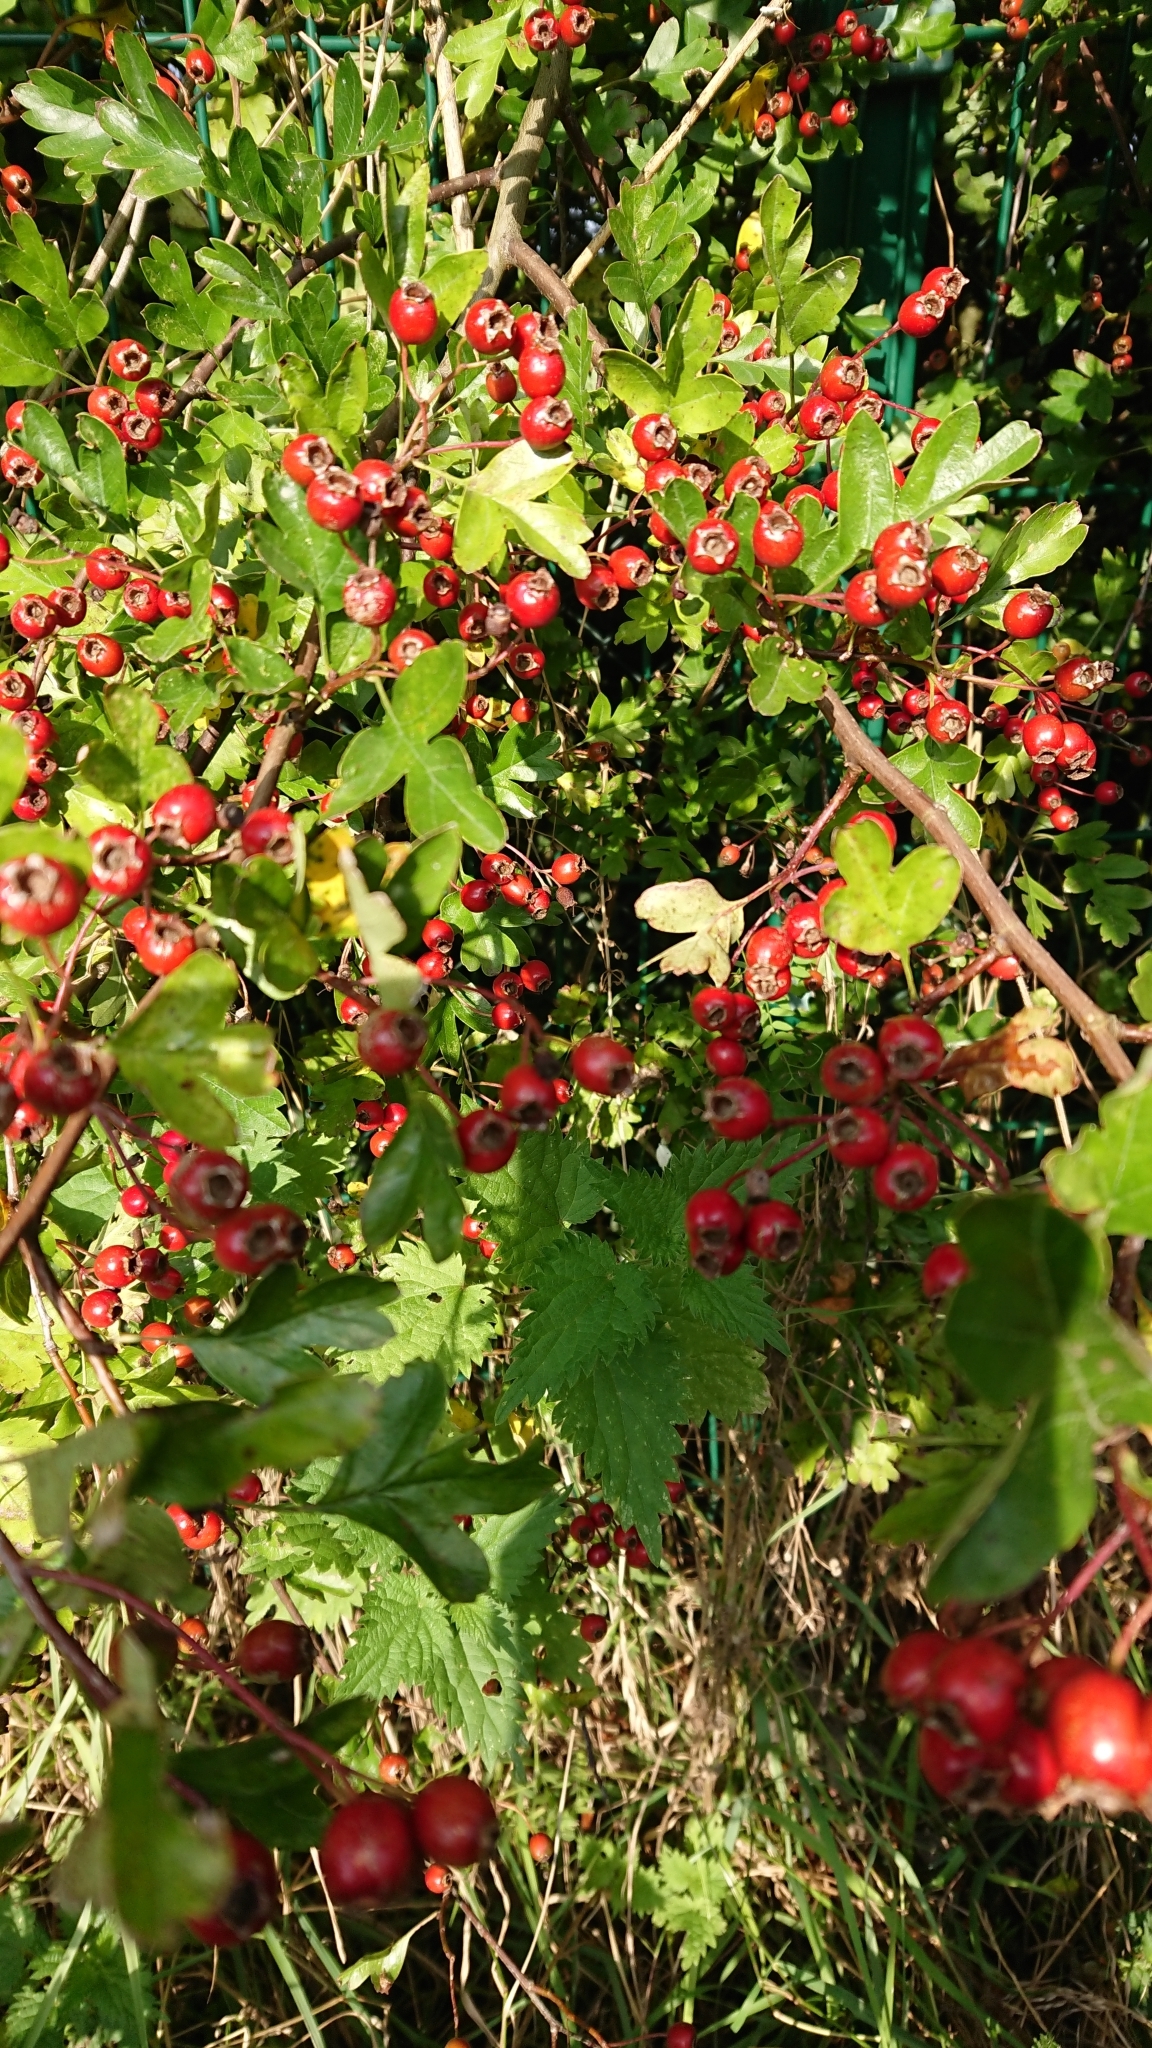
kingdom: Plantae
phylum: Tracheophyta
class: Magnoliopsida
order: Rosales
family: Rosaceae
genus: Crataegus
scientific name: Crataegus monogyna
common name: Hawthorn
